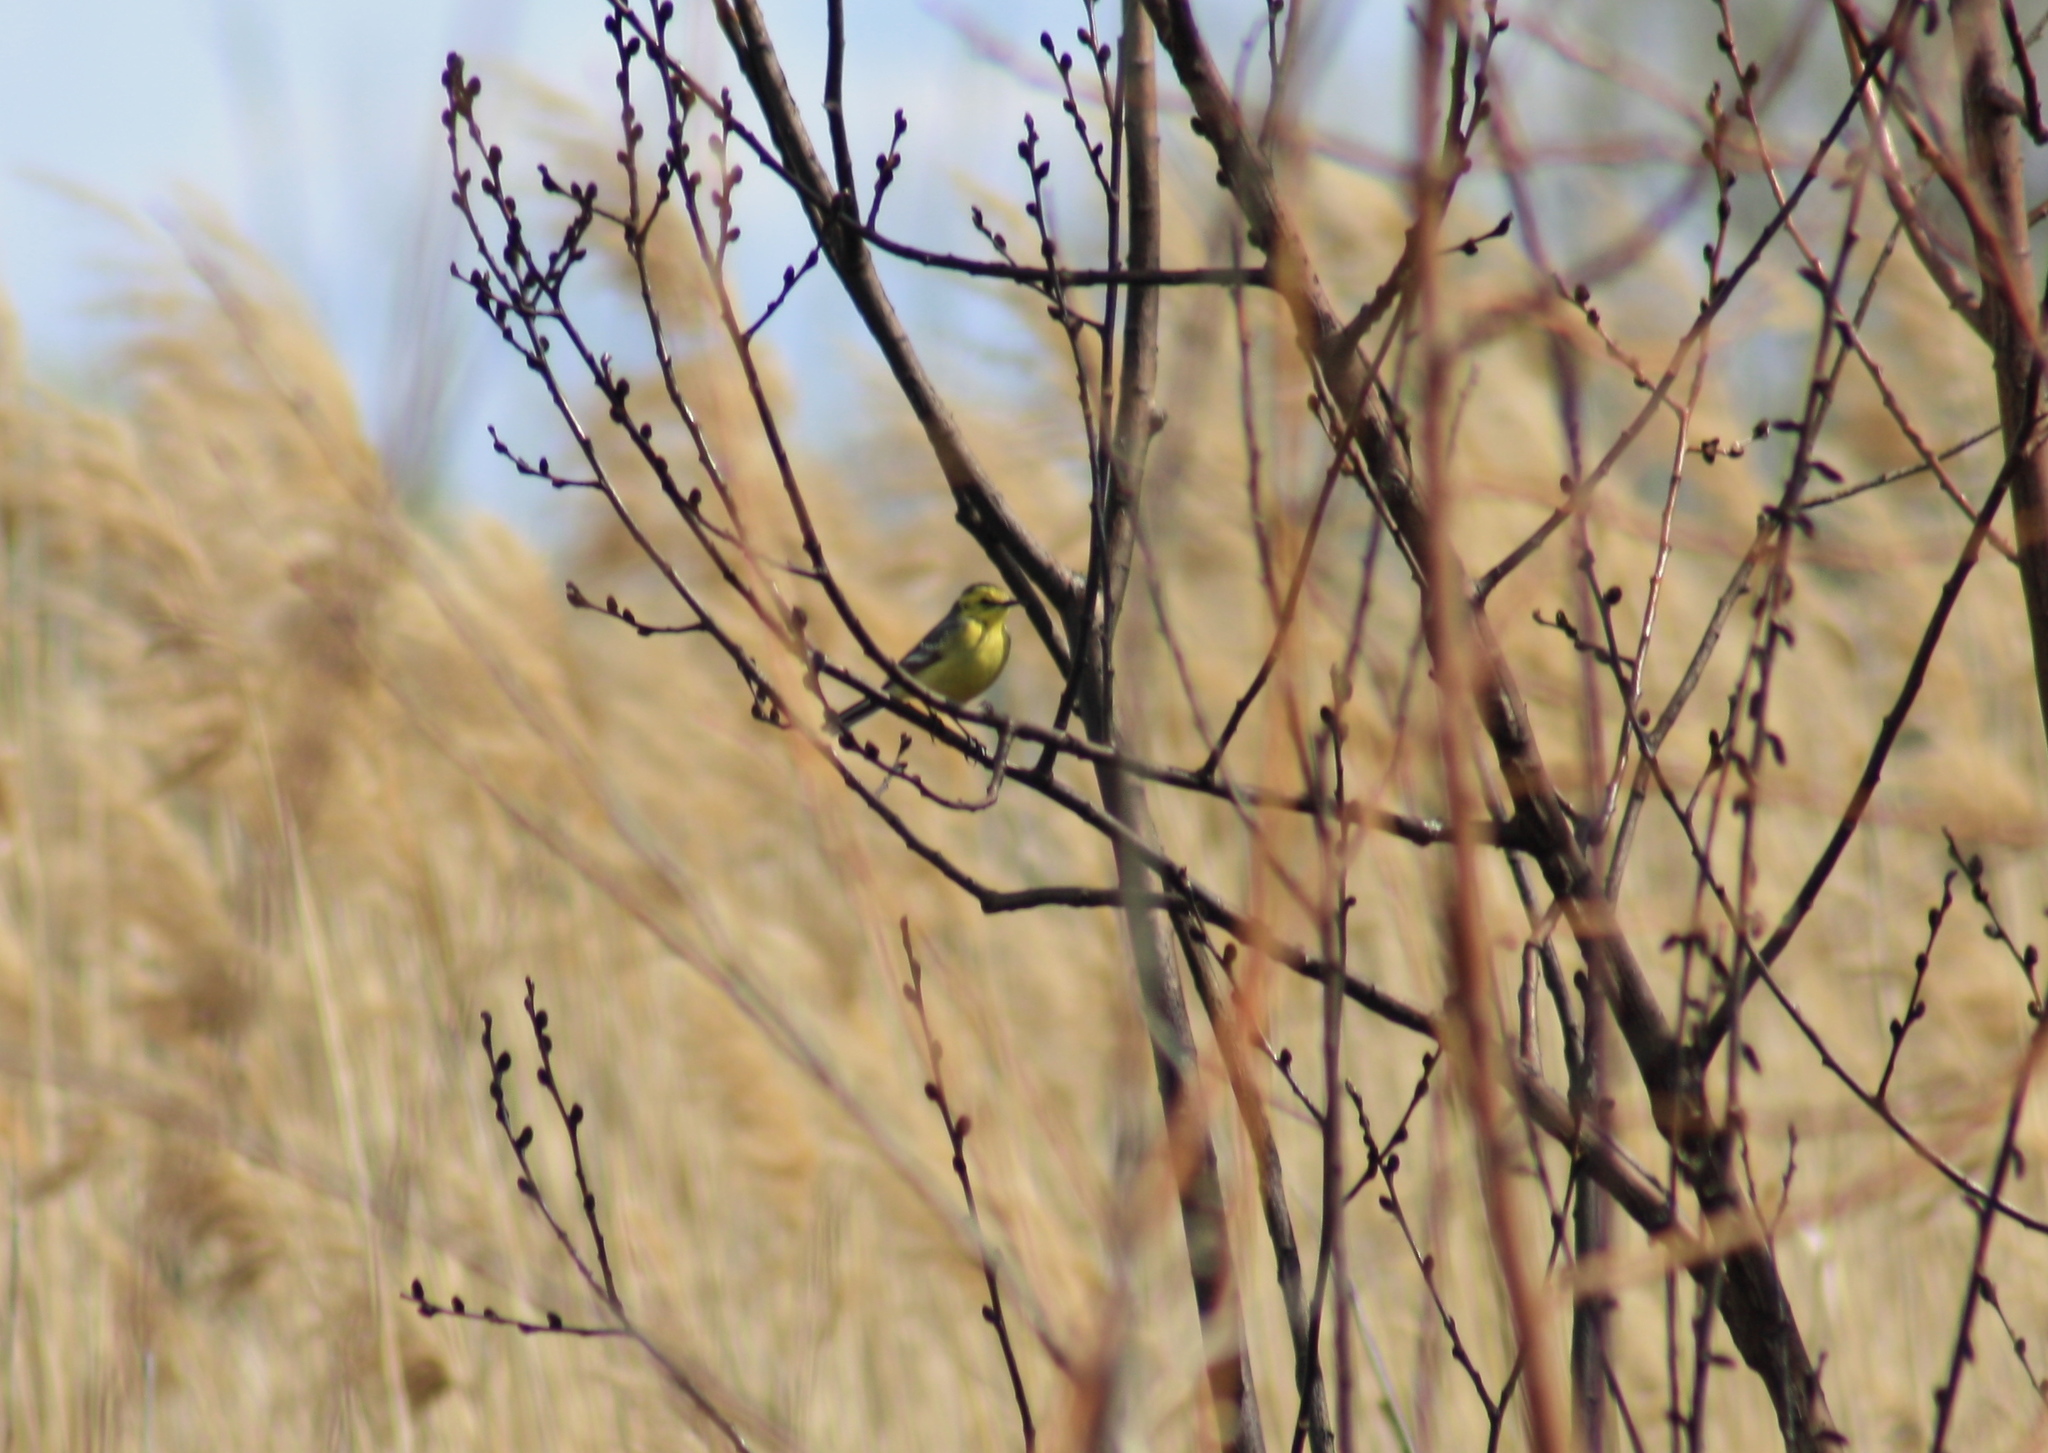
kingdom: Animalia
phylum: Chordata
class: Aves
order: Passeriformes
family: Motacillidae
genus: Motacilla
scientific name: Motacilla citreola
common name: Citrine wagtail
